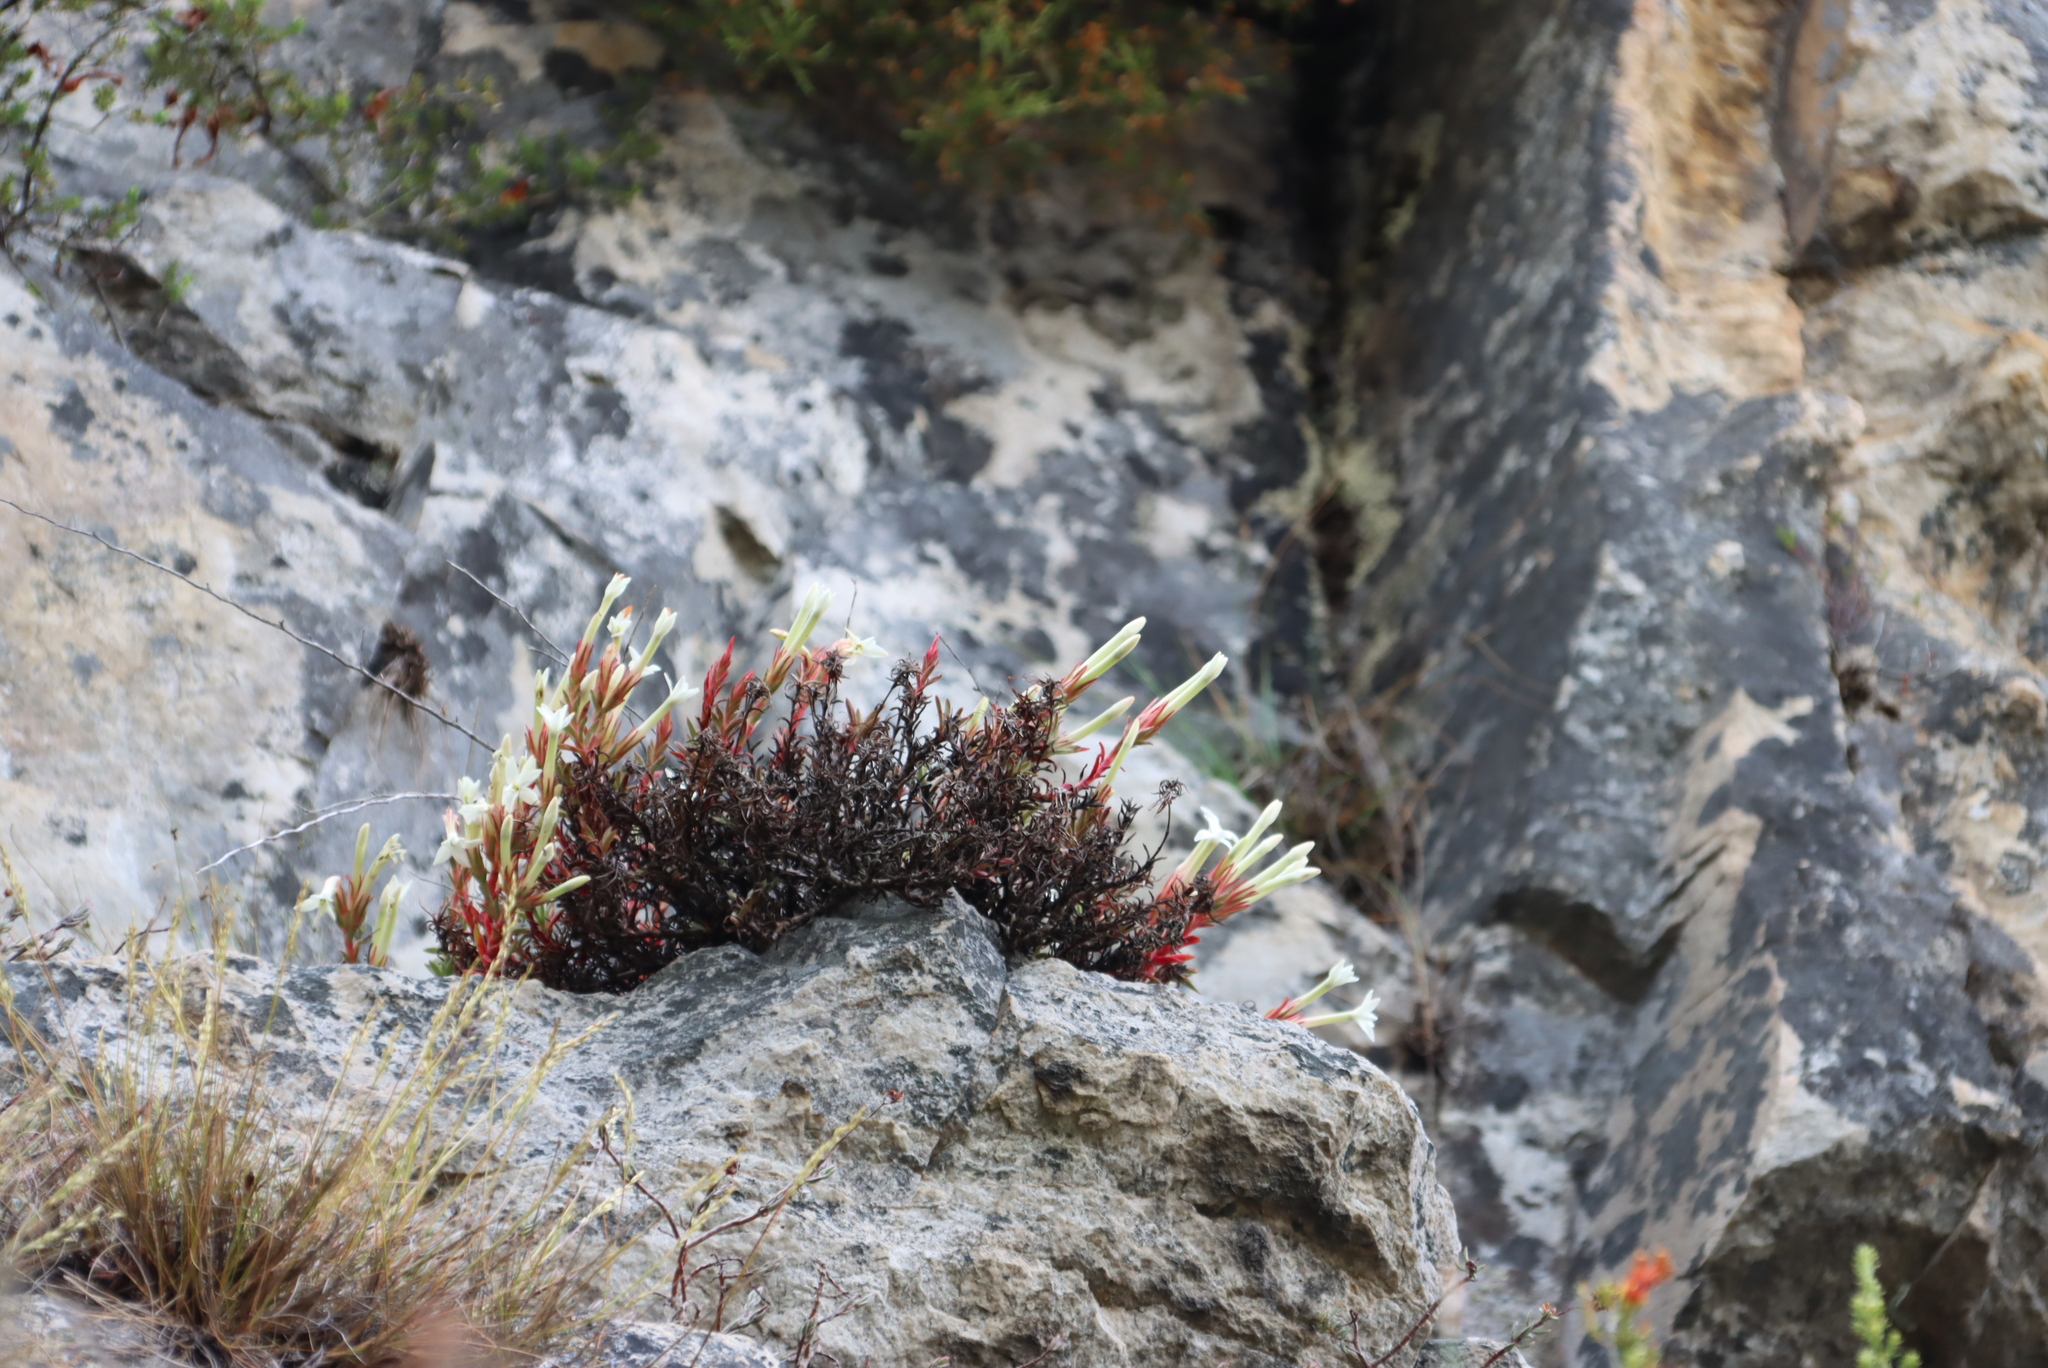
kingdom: Plantae
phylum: Tracheophyta
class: Magnoliopsida
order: Saxifragales
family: Crassulaceae
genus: Crassula
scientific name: Crassula obtusa
